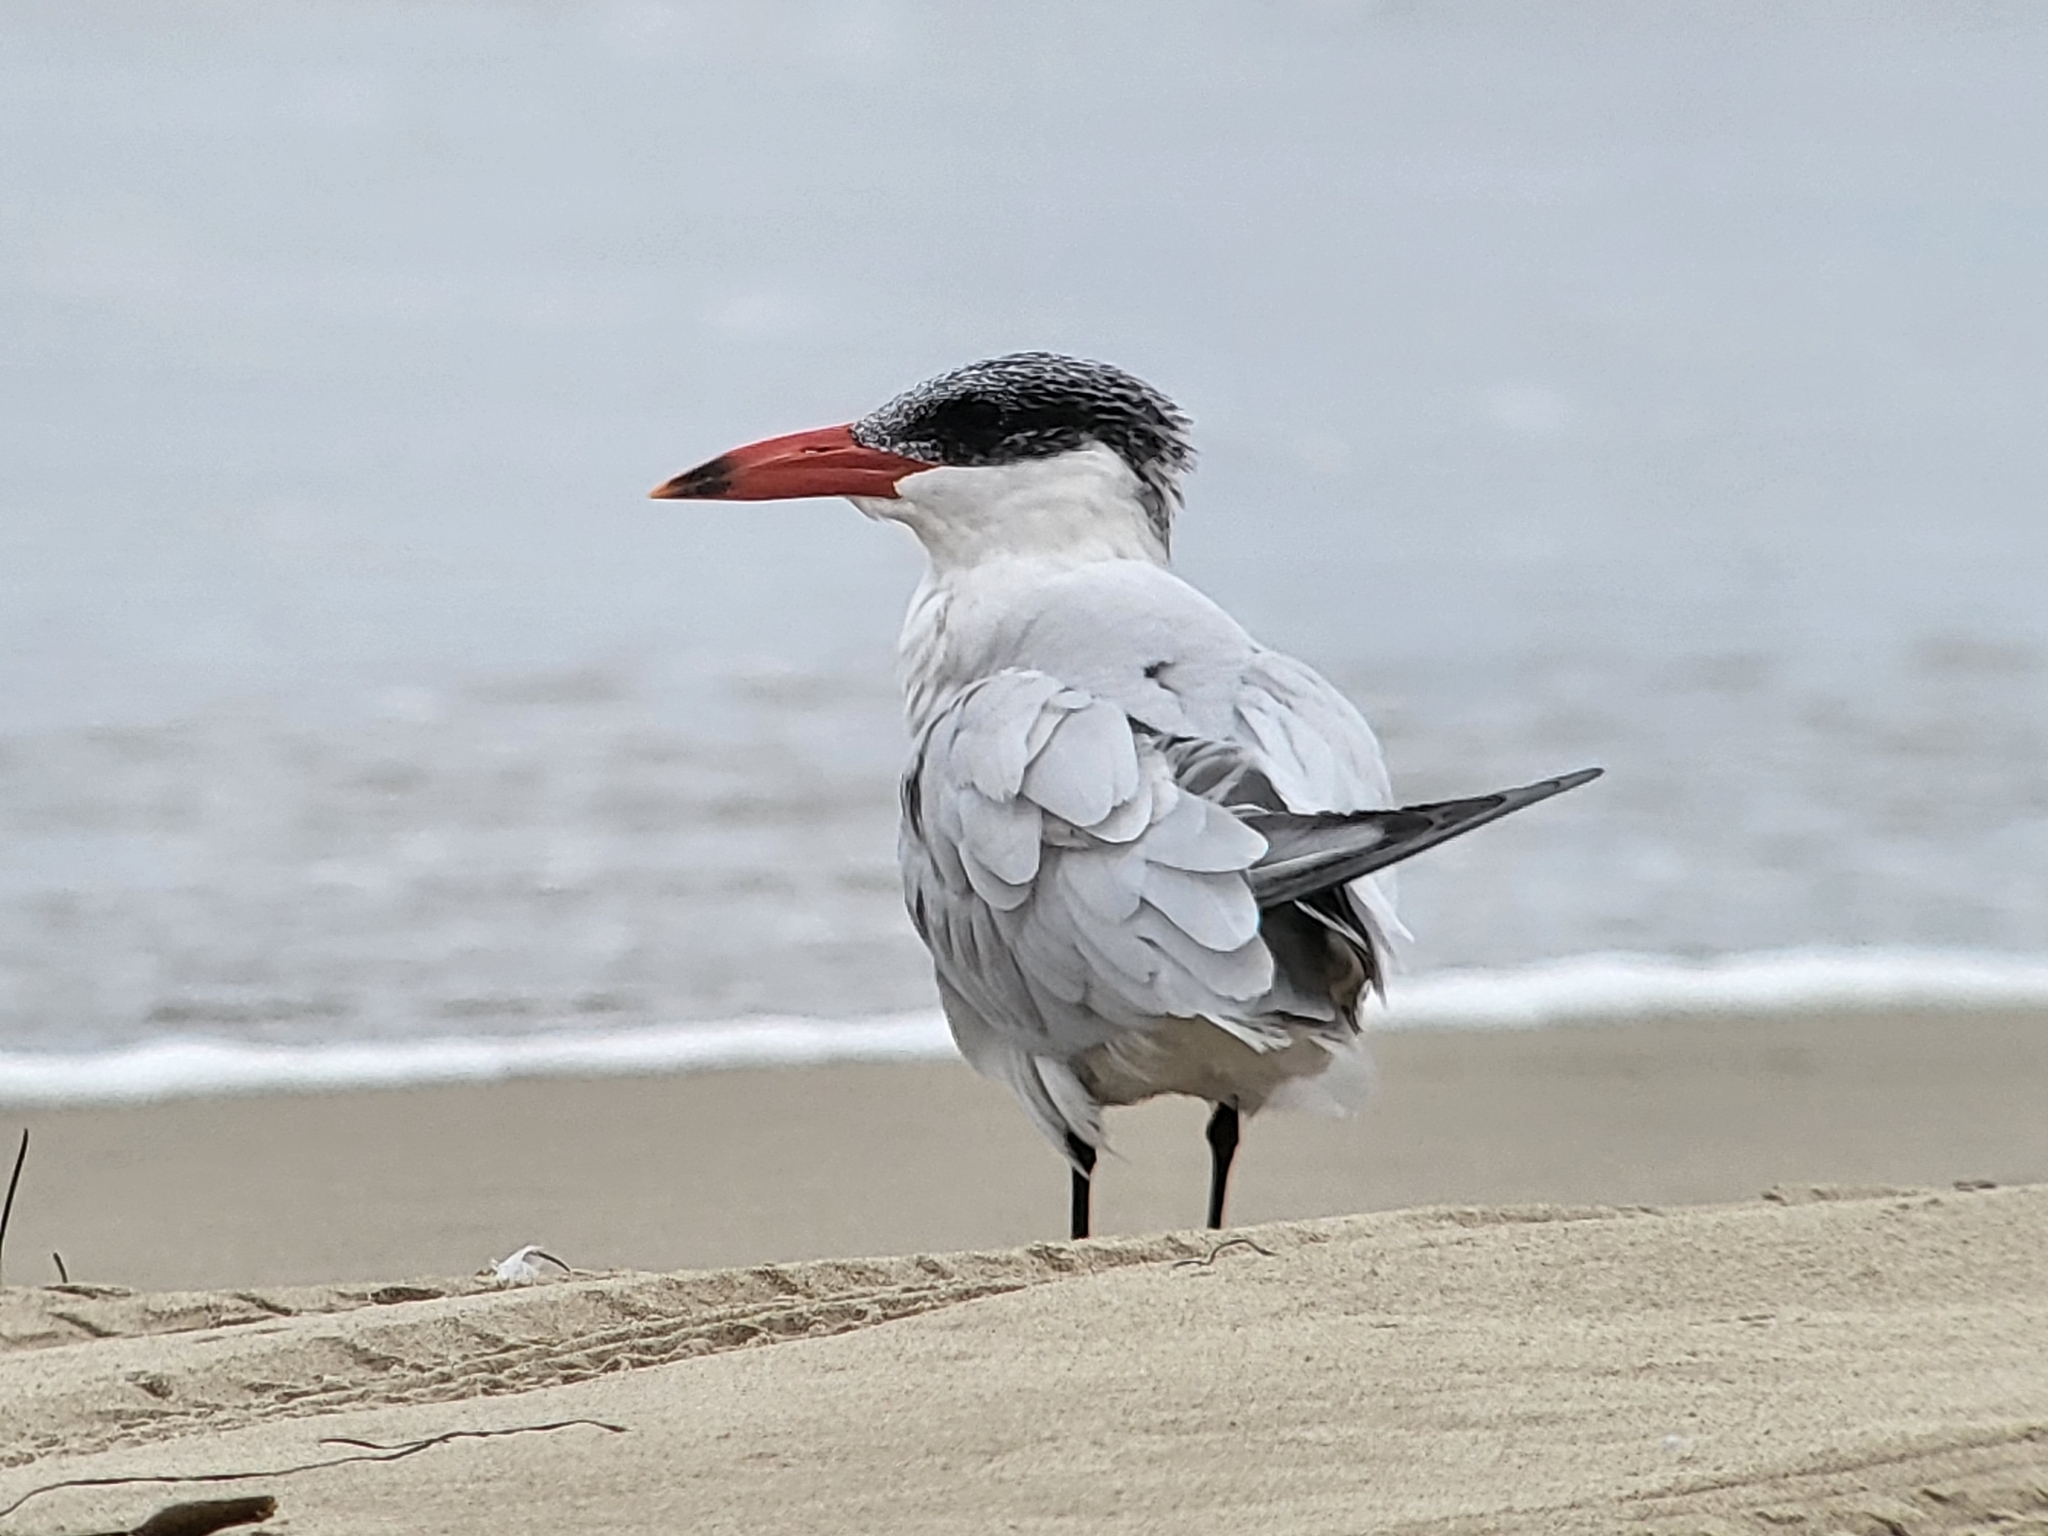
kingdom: Animalia
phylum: Chordata
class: Aves
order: Charadriiformes
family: Laridae
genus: Hydroprogne
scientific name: Hydroprogne caspia
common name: Caspian tern
